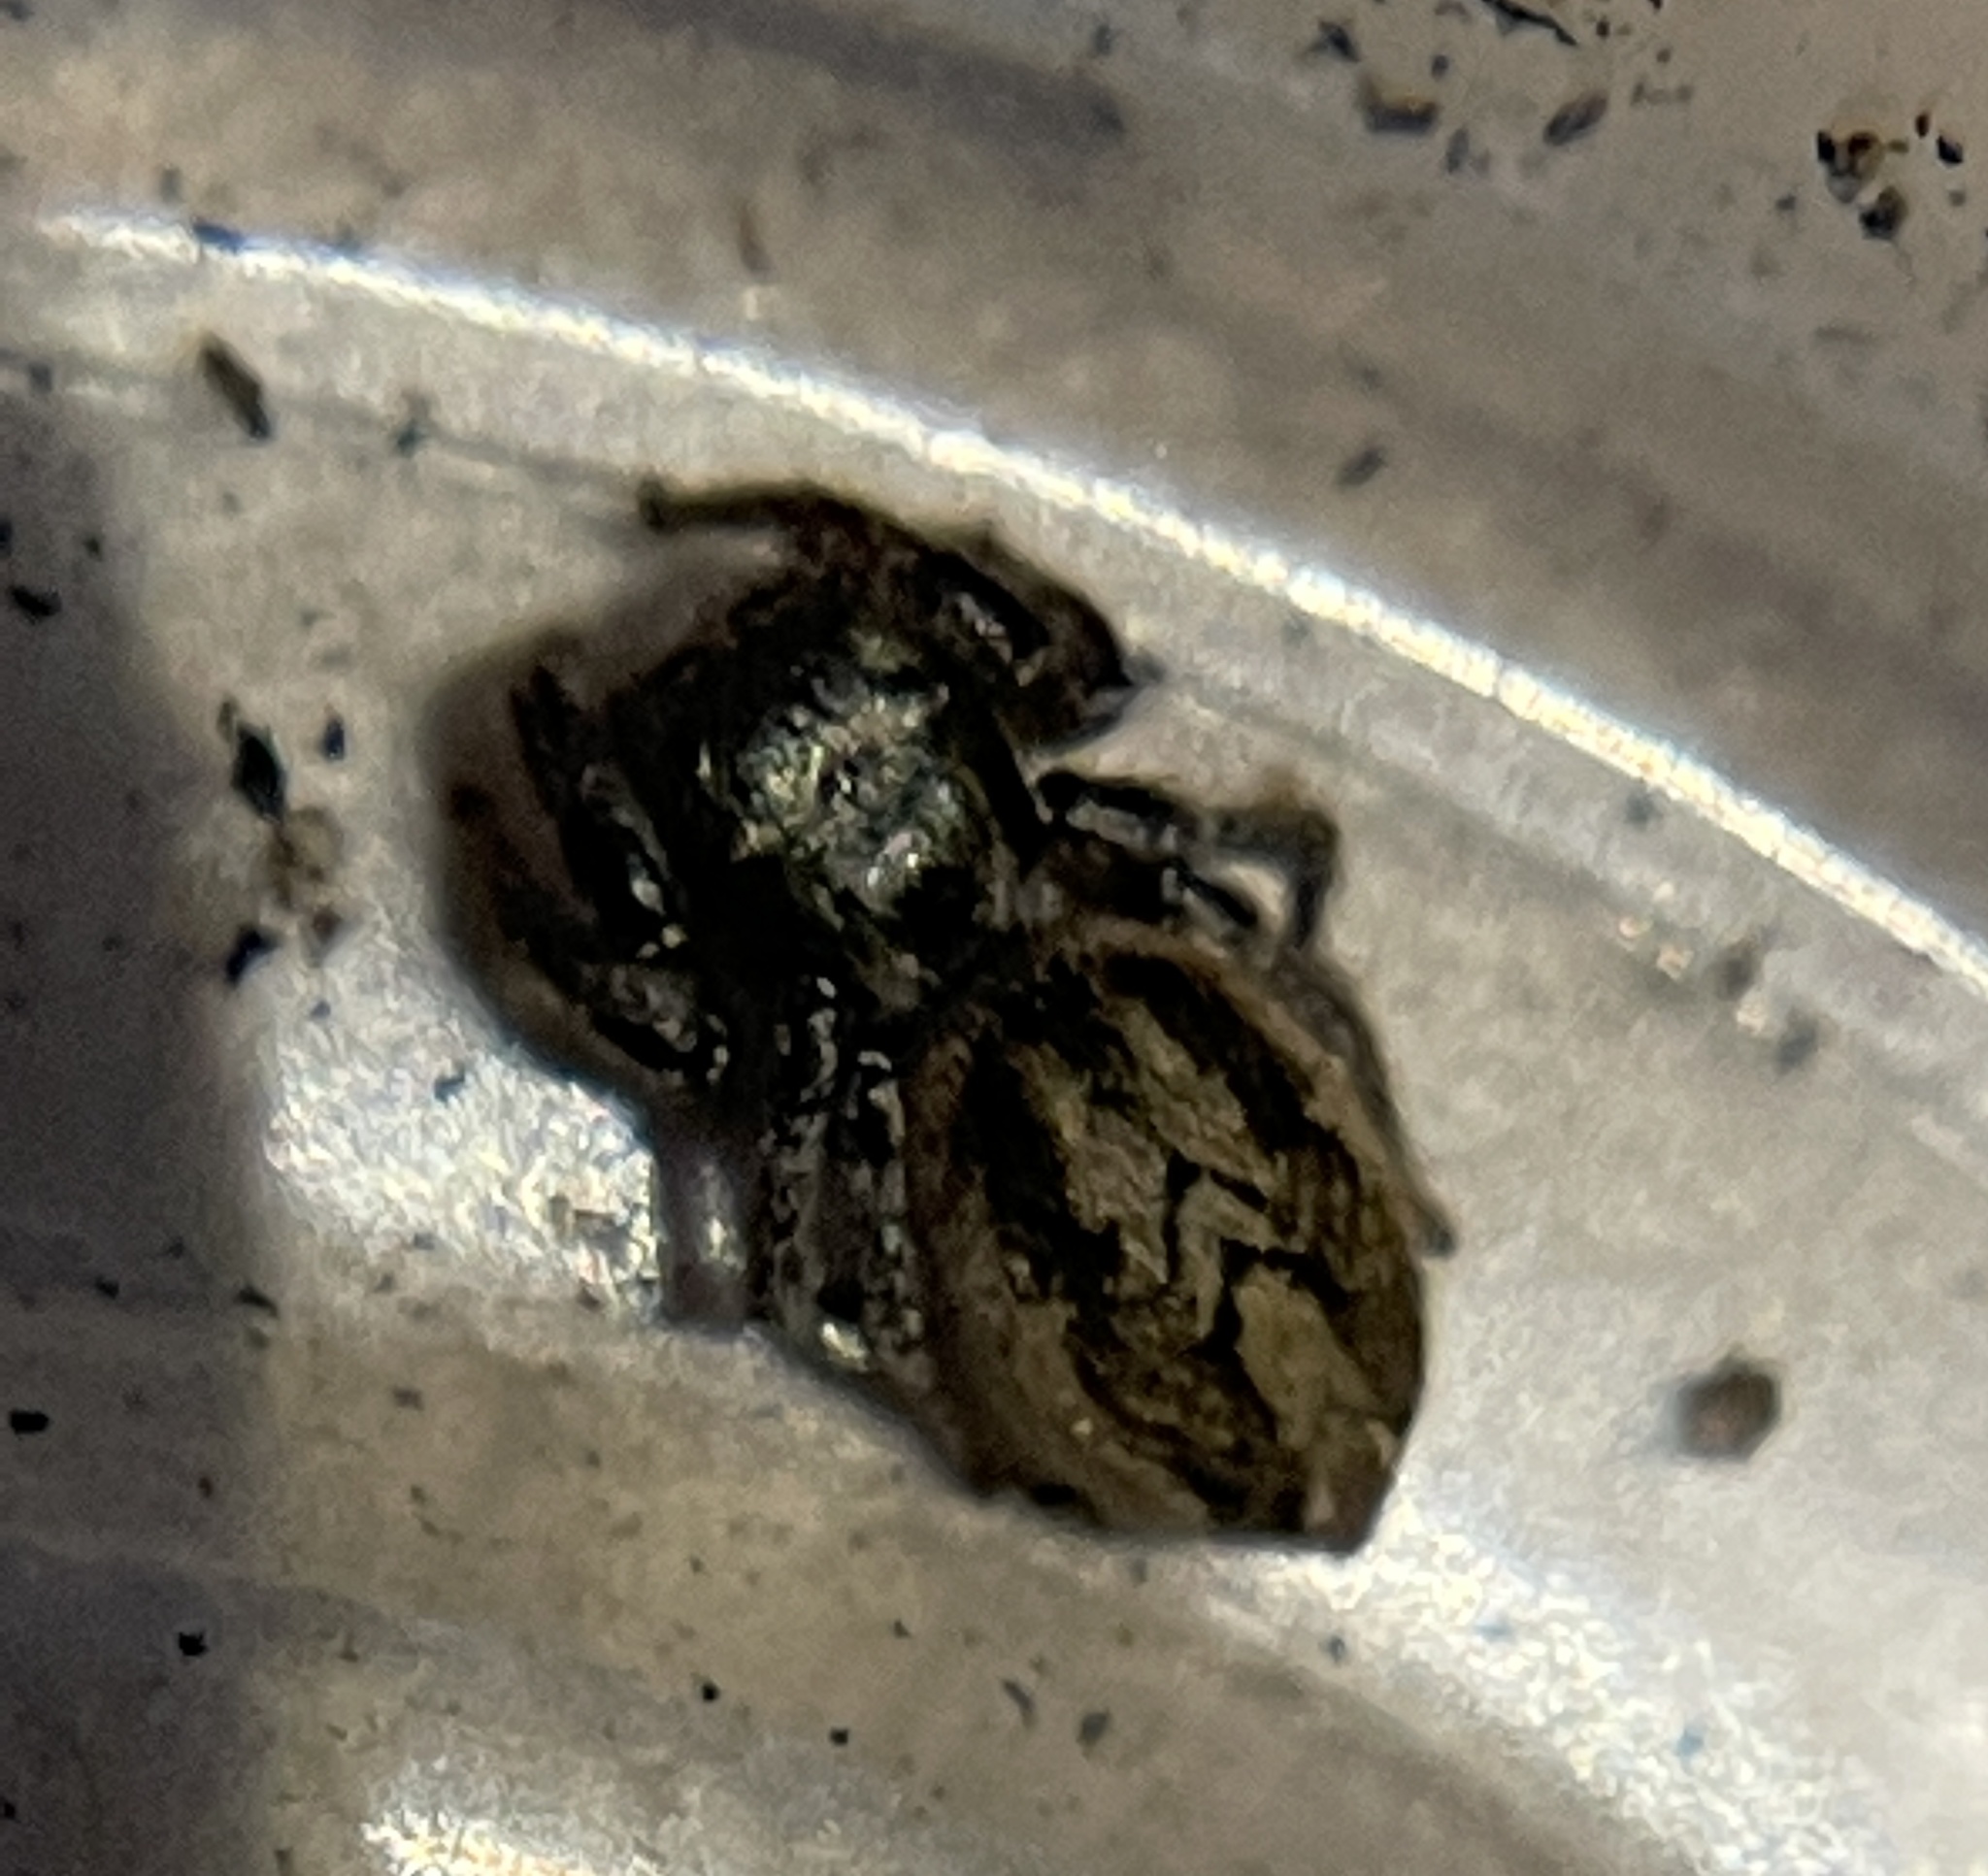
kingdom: Animalia
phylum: Arthropoda
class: Arachnida
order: Araneae
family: Salticidae
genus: Habronattus
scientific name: Habronattus pyrrithrix
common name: Jumping spider
